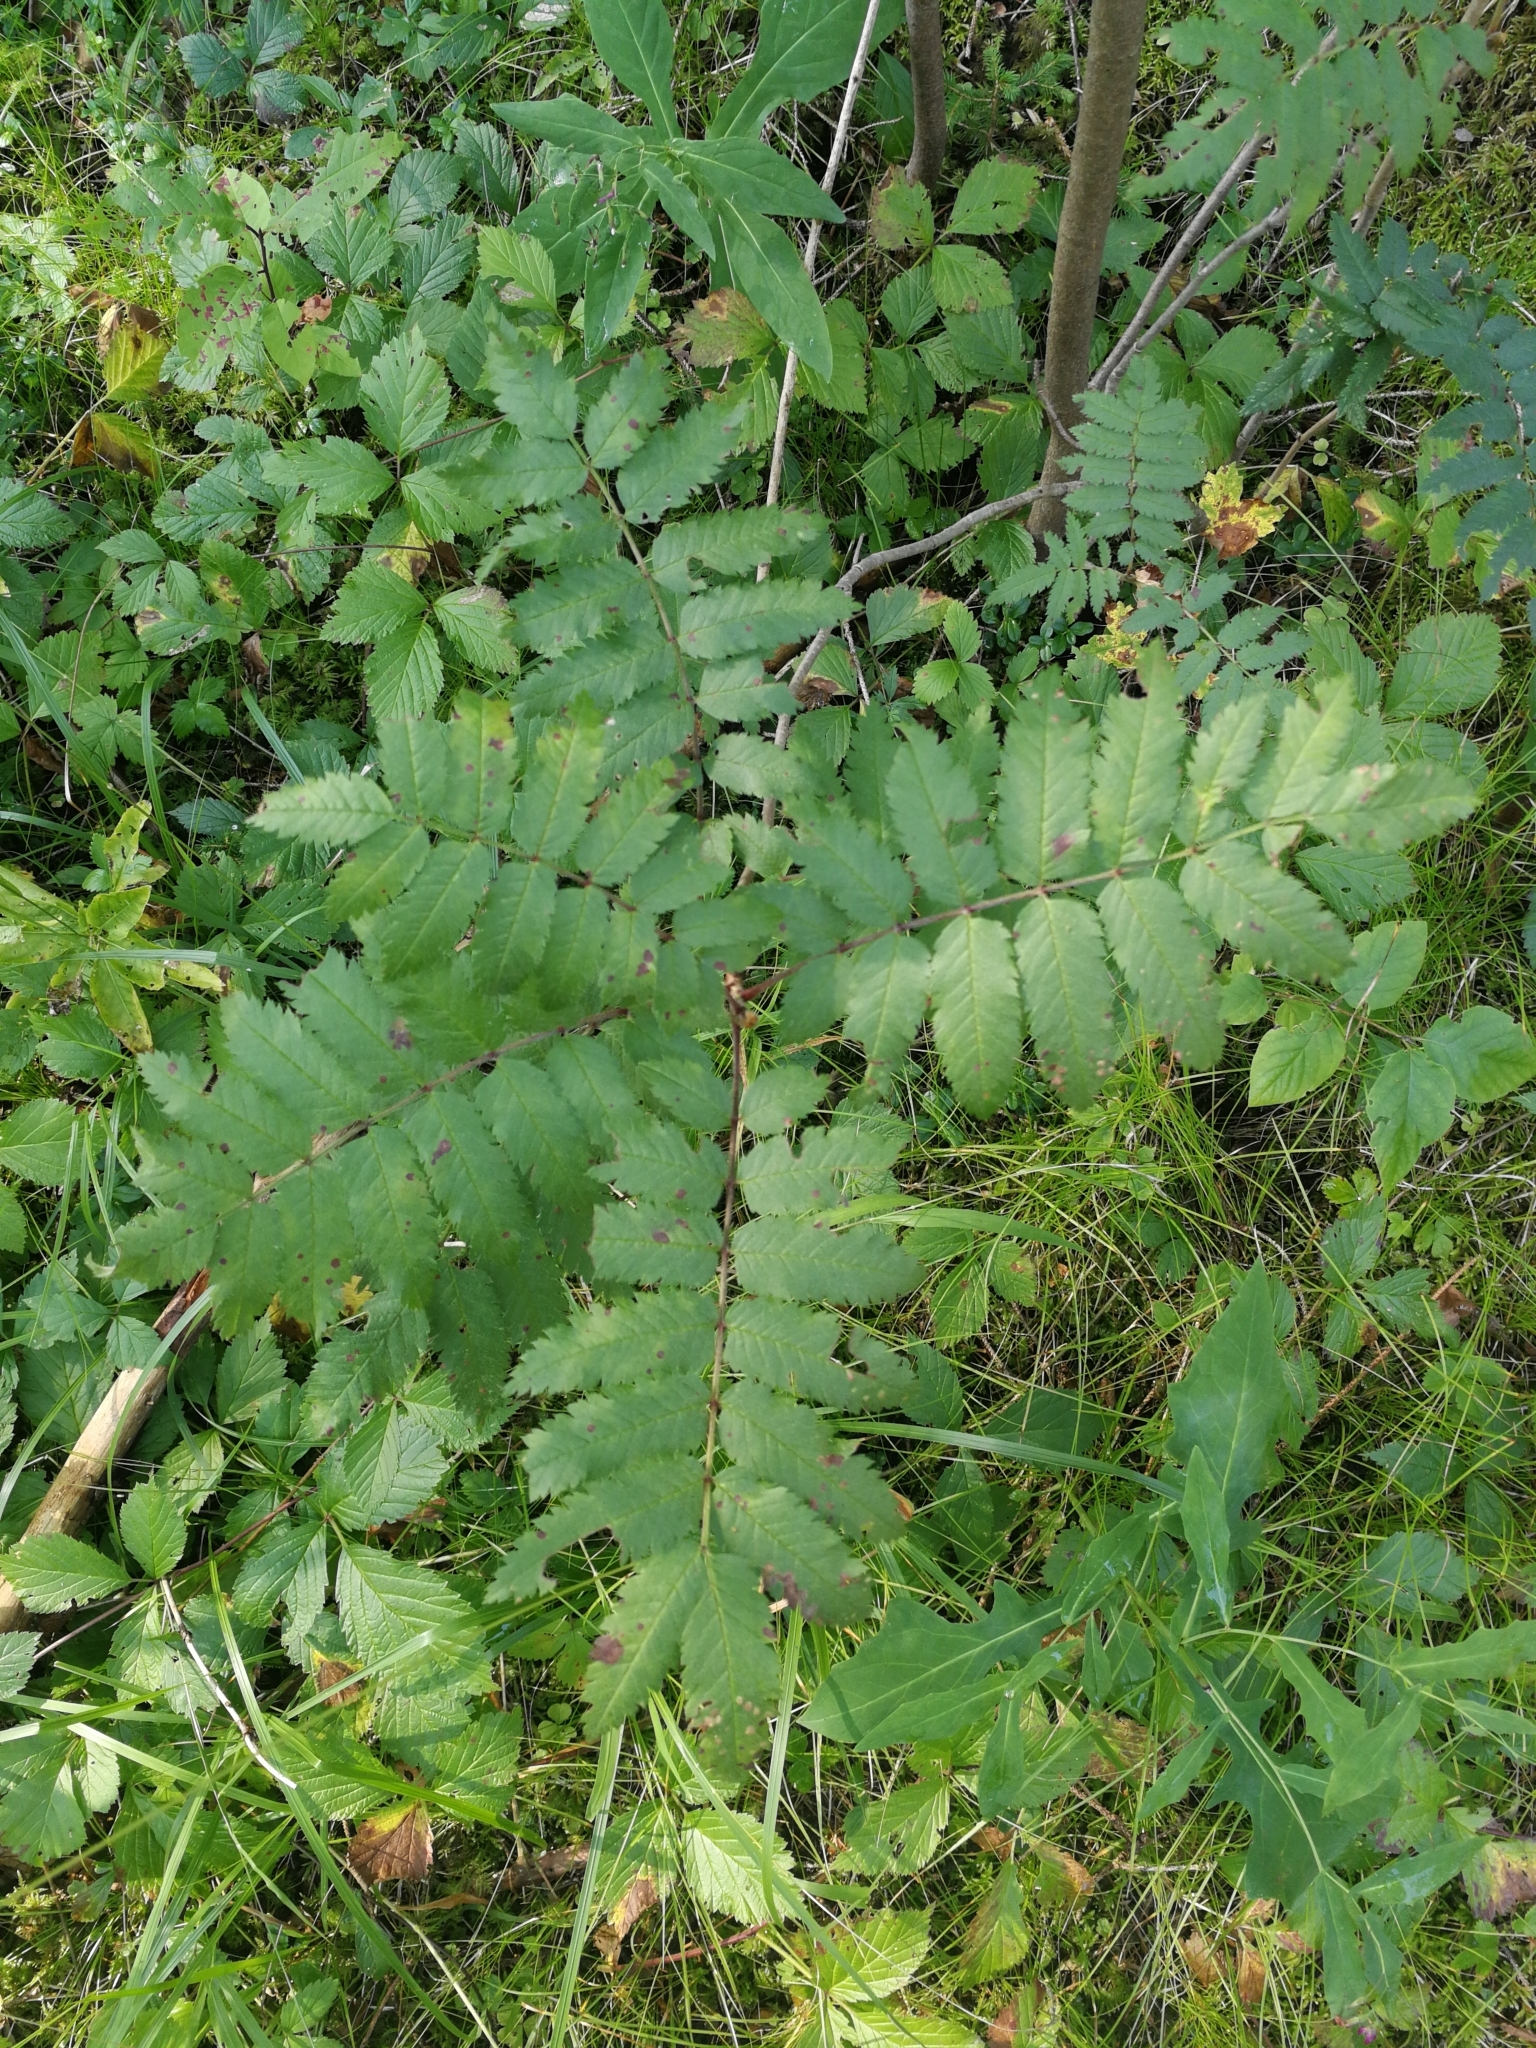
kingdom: Plantae
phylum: Tracheophyta
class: Magnoliopsida
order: Rosales
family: Rosaceae
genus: Sorbus
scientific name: Sorbus aucuparia
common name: Rowan
